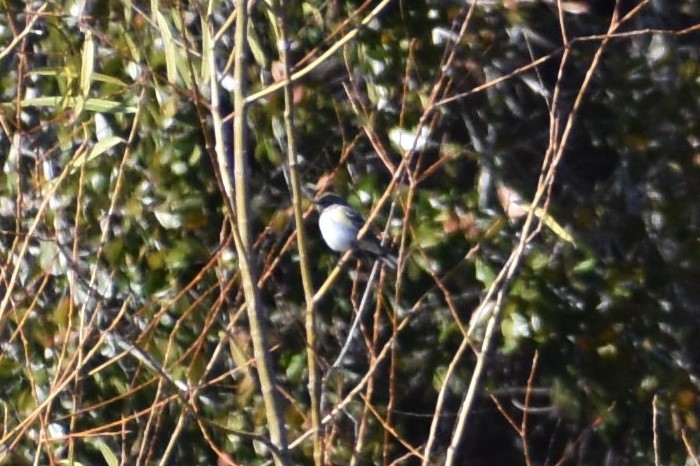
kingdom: Animalia
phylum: Chordata
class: Aves
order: Passeriformes
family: Parulidae
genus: Setophaga
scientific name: Setophaga coronata
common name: Myrtle warbler
